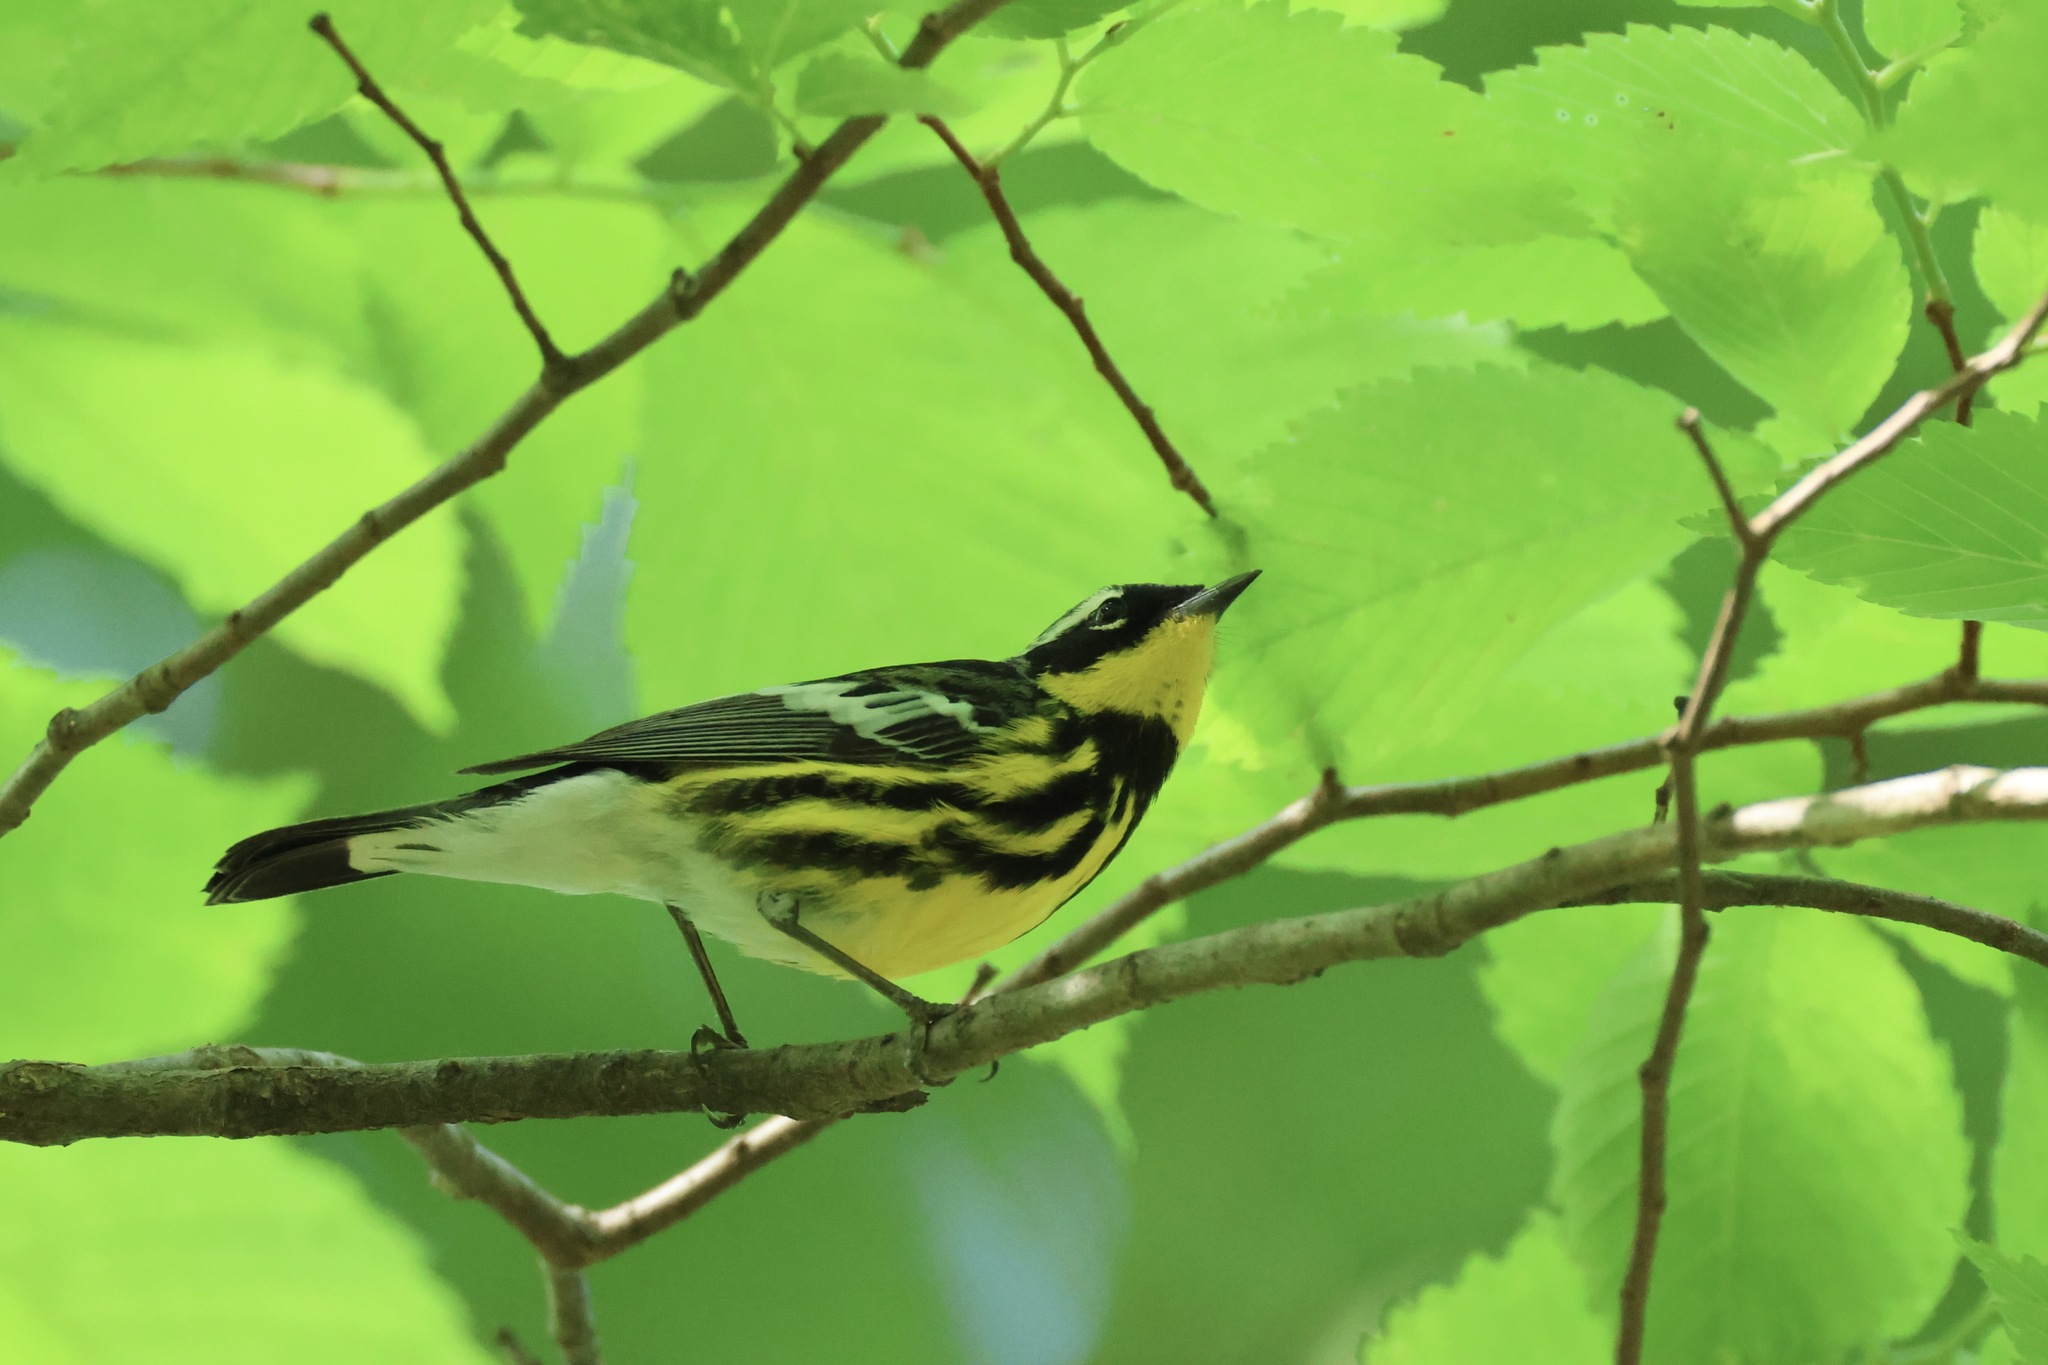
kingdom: Animalia
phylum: Chordata
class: Aves
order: Passeriformes
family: Parulidae
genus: Setophaga
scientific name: Setophaga magnolia
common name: Magnolia warbler
